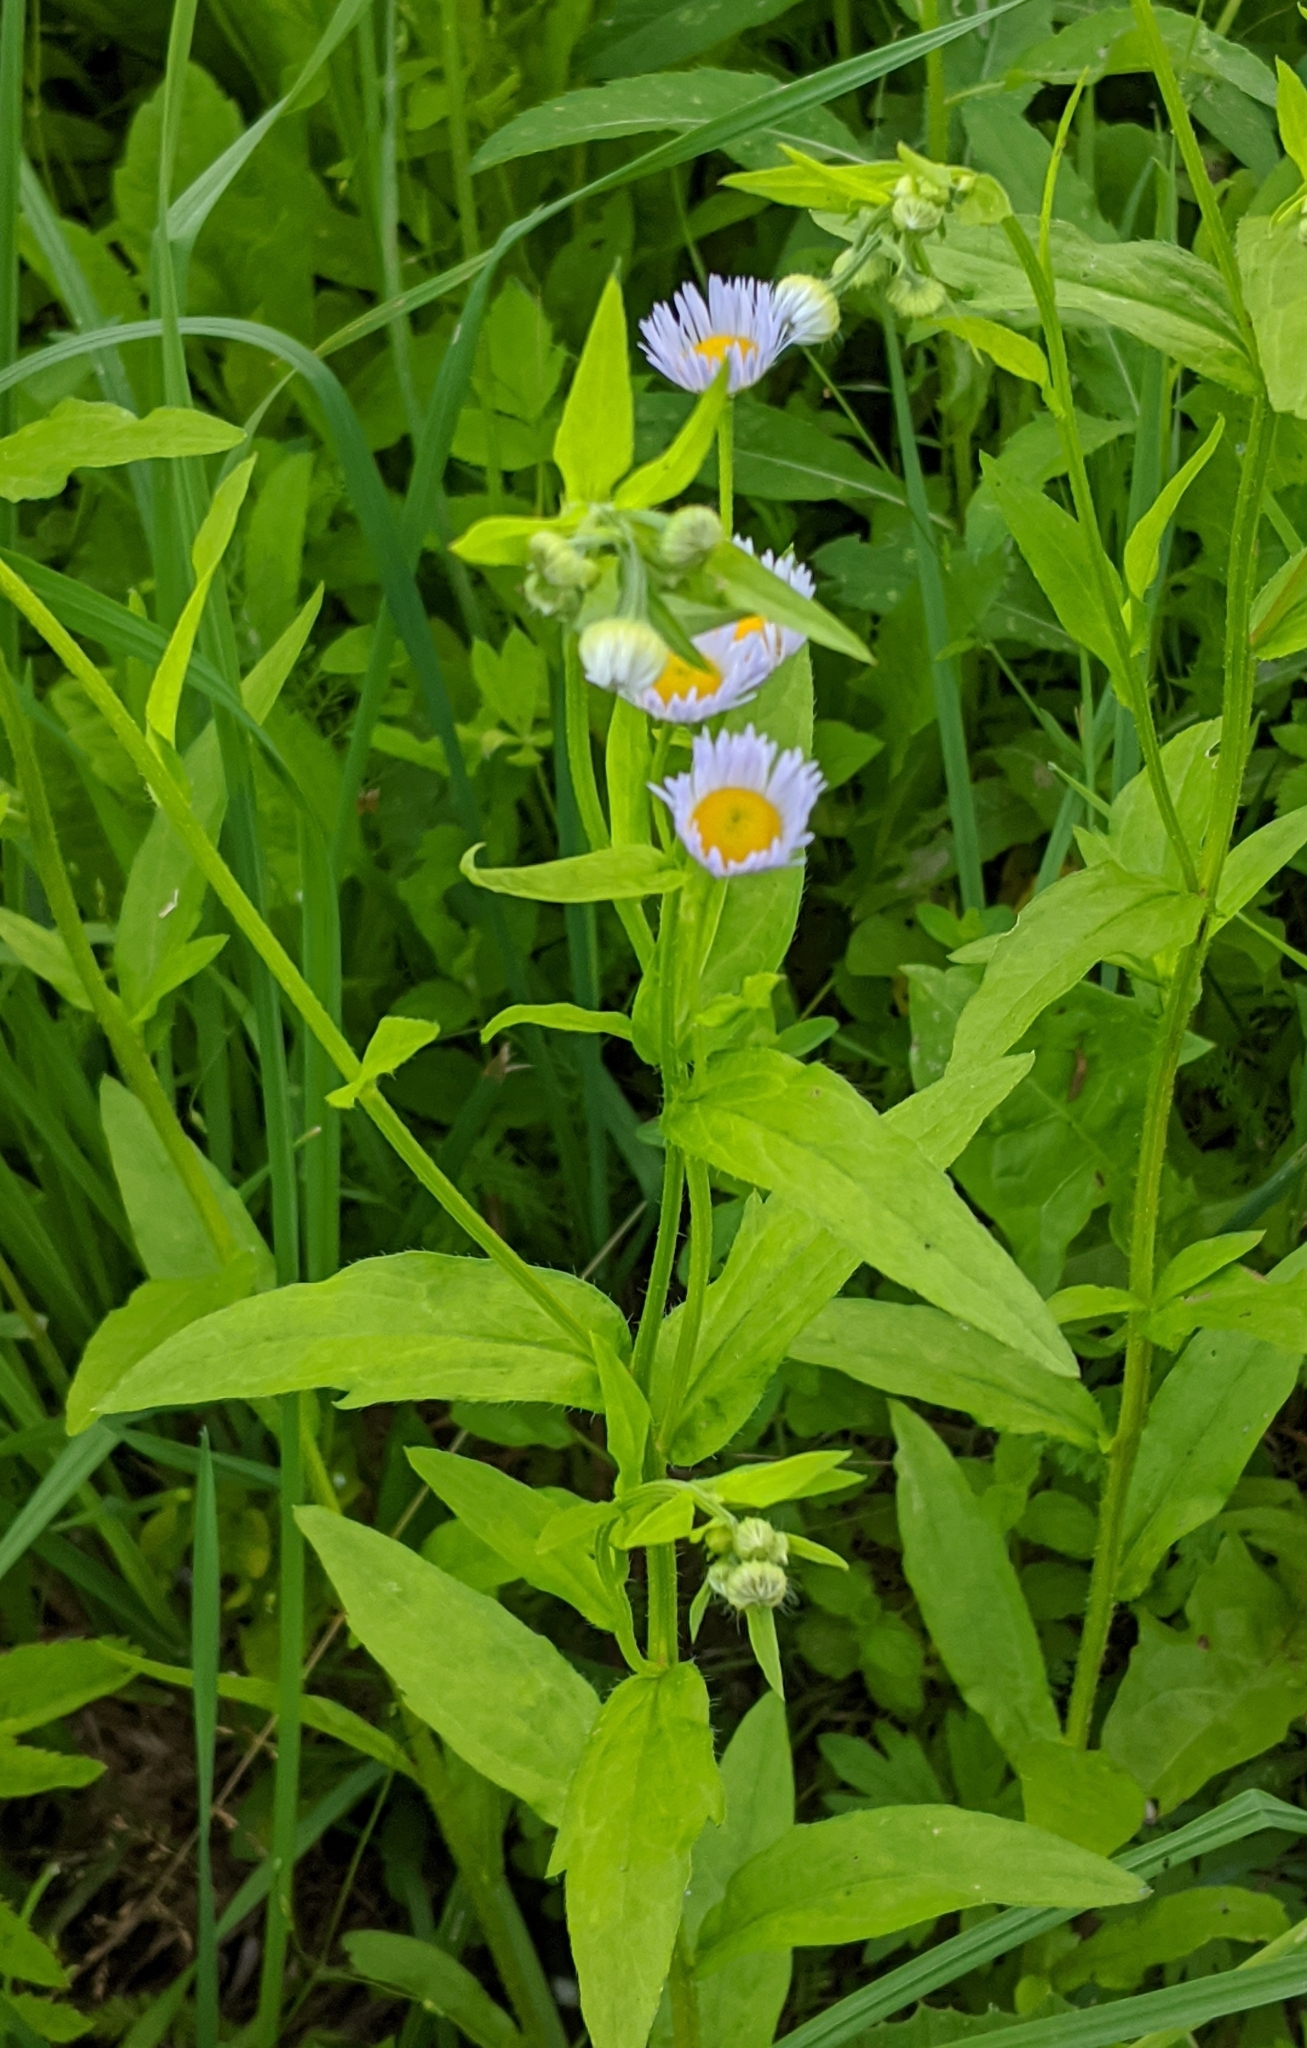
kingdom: Plantae
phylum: Tracheophyta
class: Magnoliopsida
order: Asterales
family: Asteraceae
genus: Erigeron
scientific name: Erigeron annuus
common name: Tall fleabane
